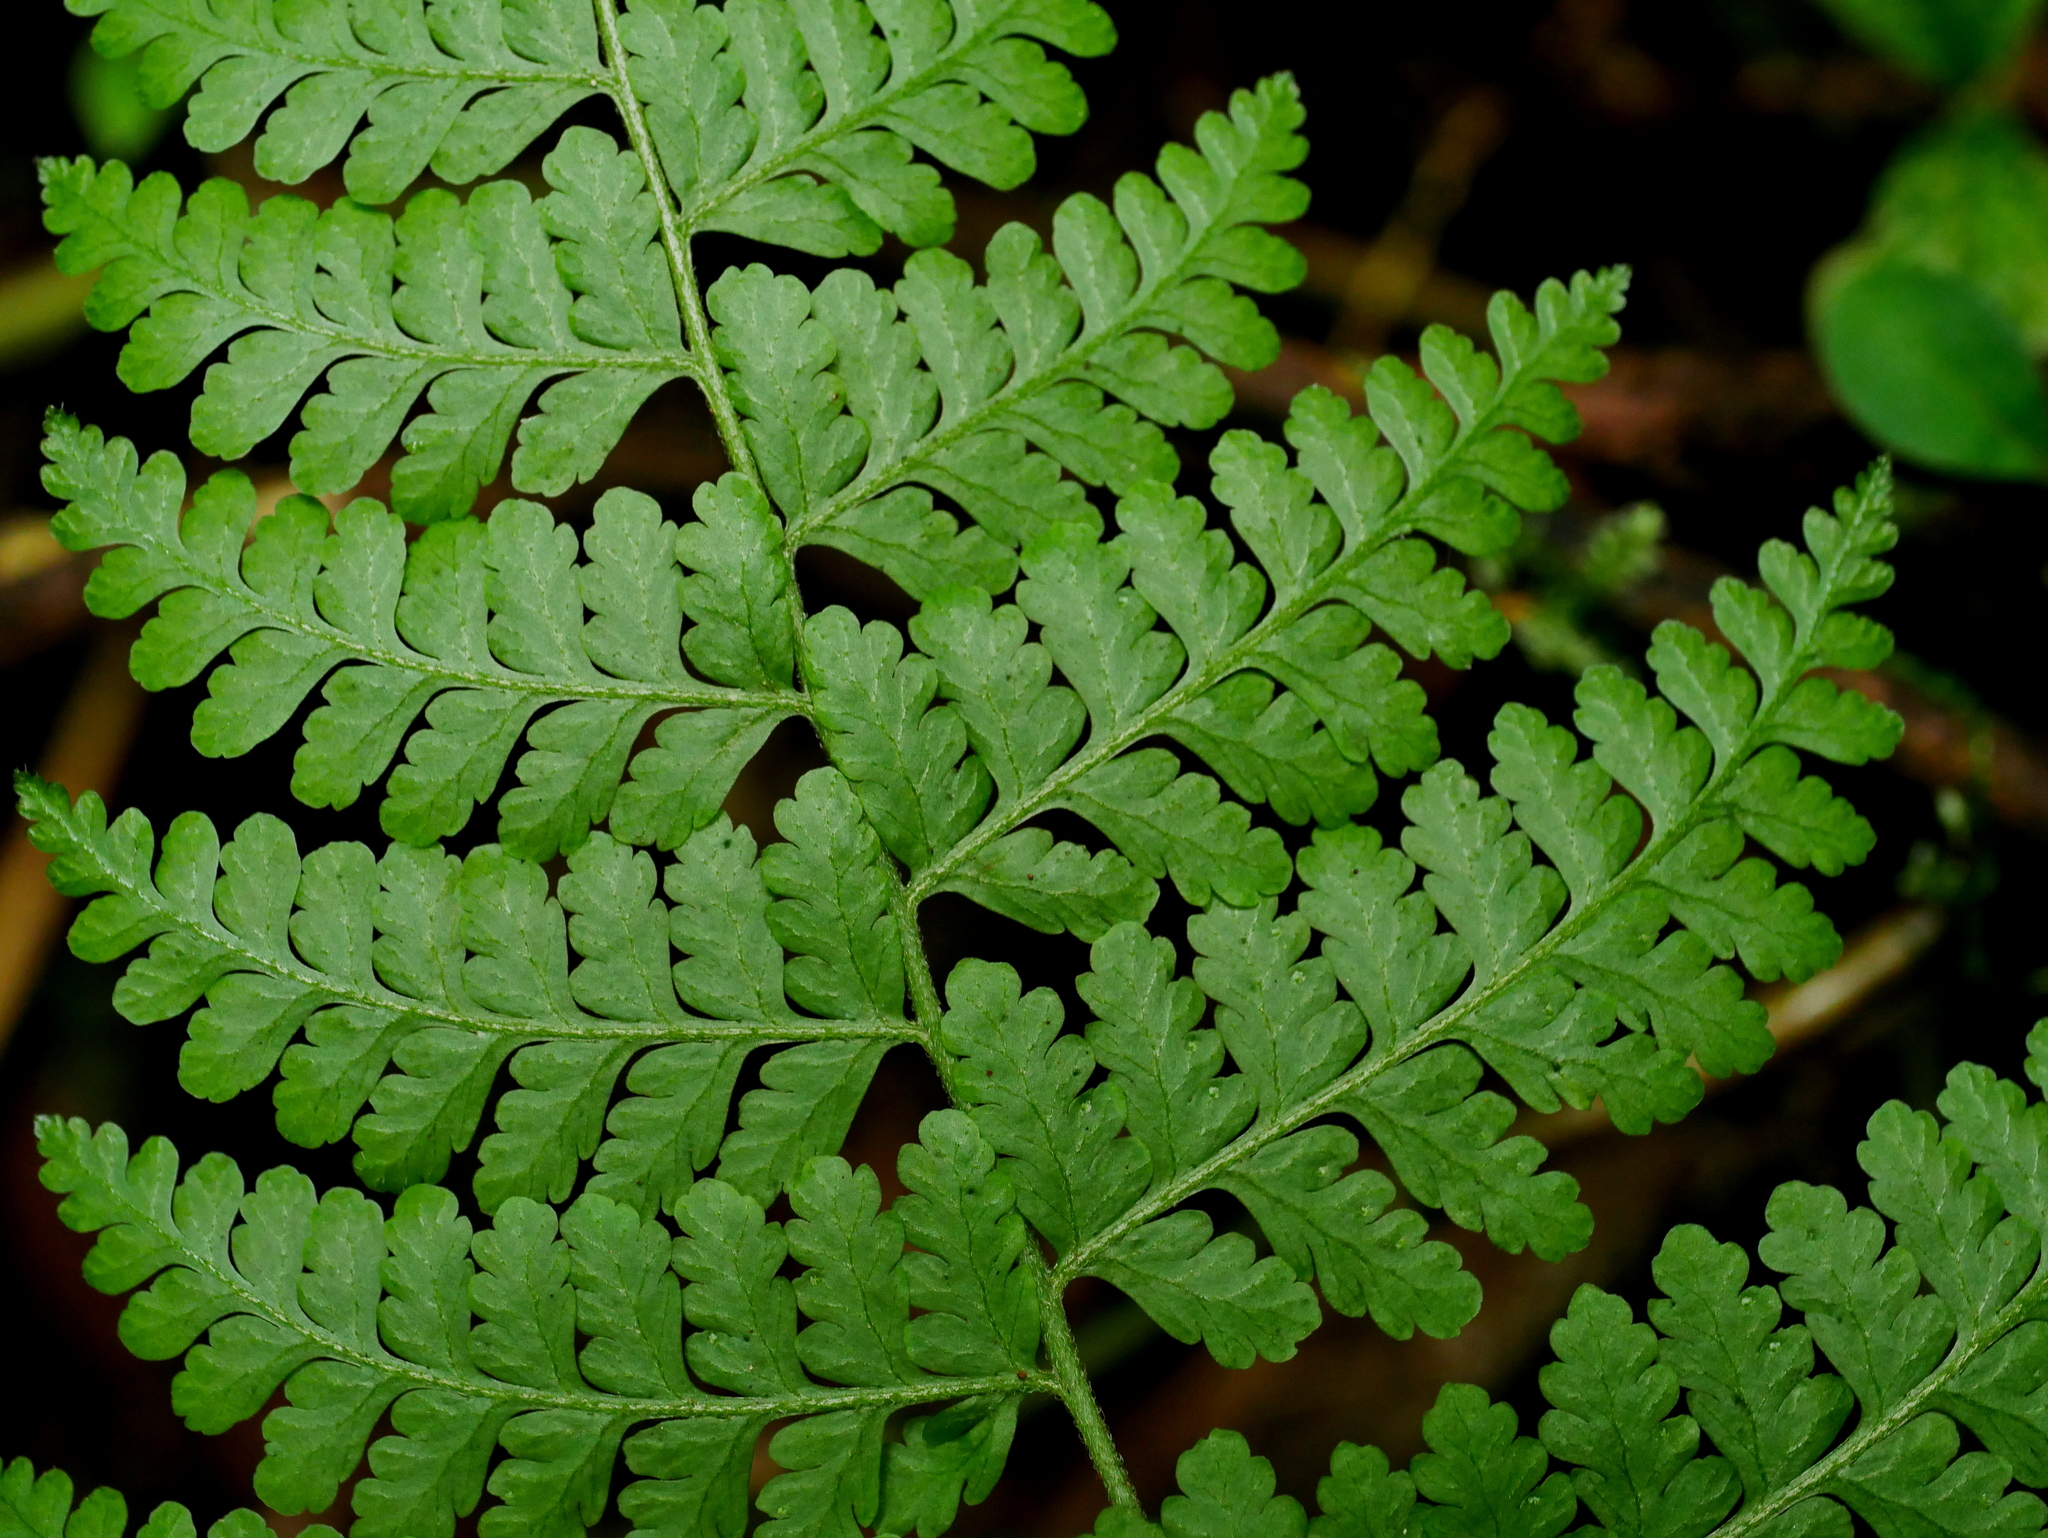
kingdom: Plantae
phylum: Tracheophyta
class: Polypodiopsida
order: Polypodiales
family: Dennstaedtiaceae
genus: Microlepia
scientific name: Microlepia tenera
